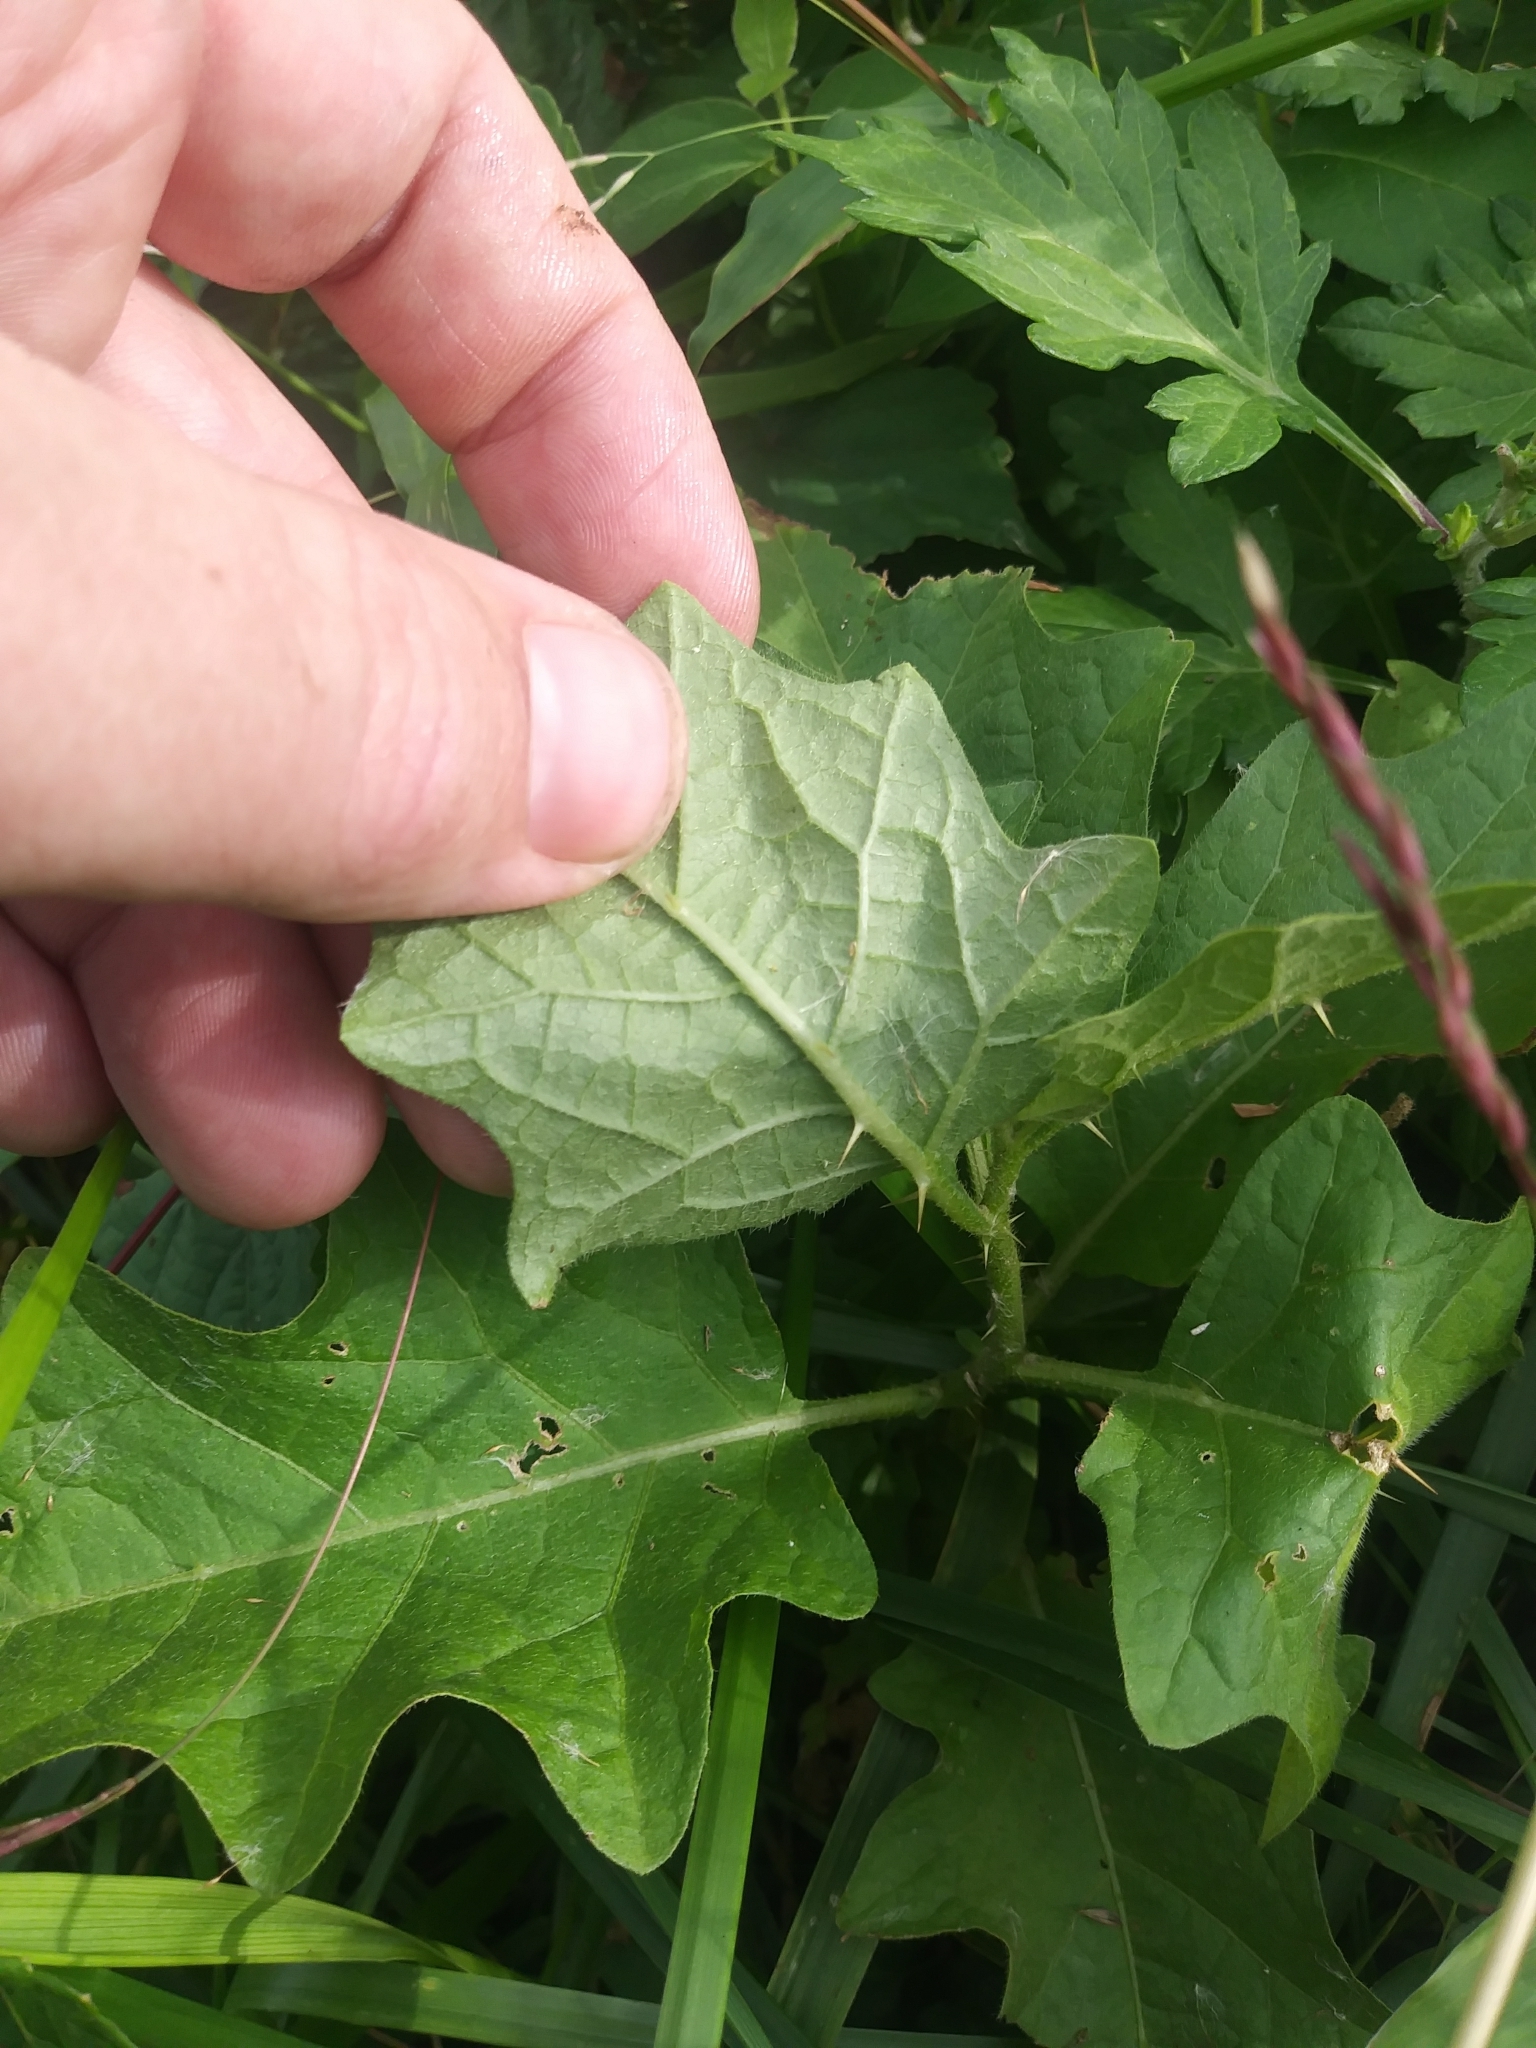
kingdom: Plantae
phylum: Tracheophyta
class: Magnoliopsida
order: Solanales
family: Solanaceae
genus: Solanum
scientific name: Solanum carolinense
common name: Horse-nettle
